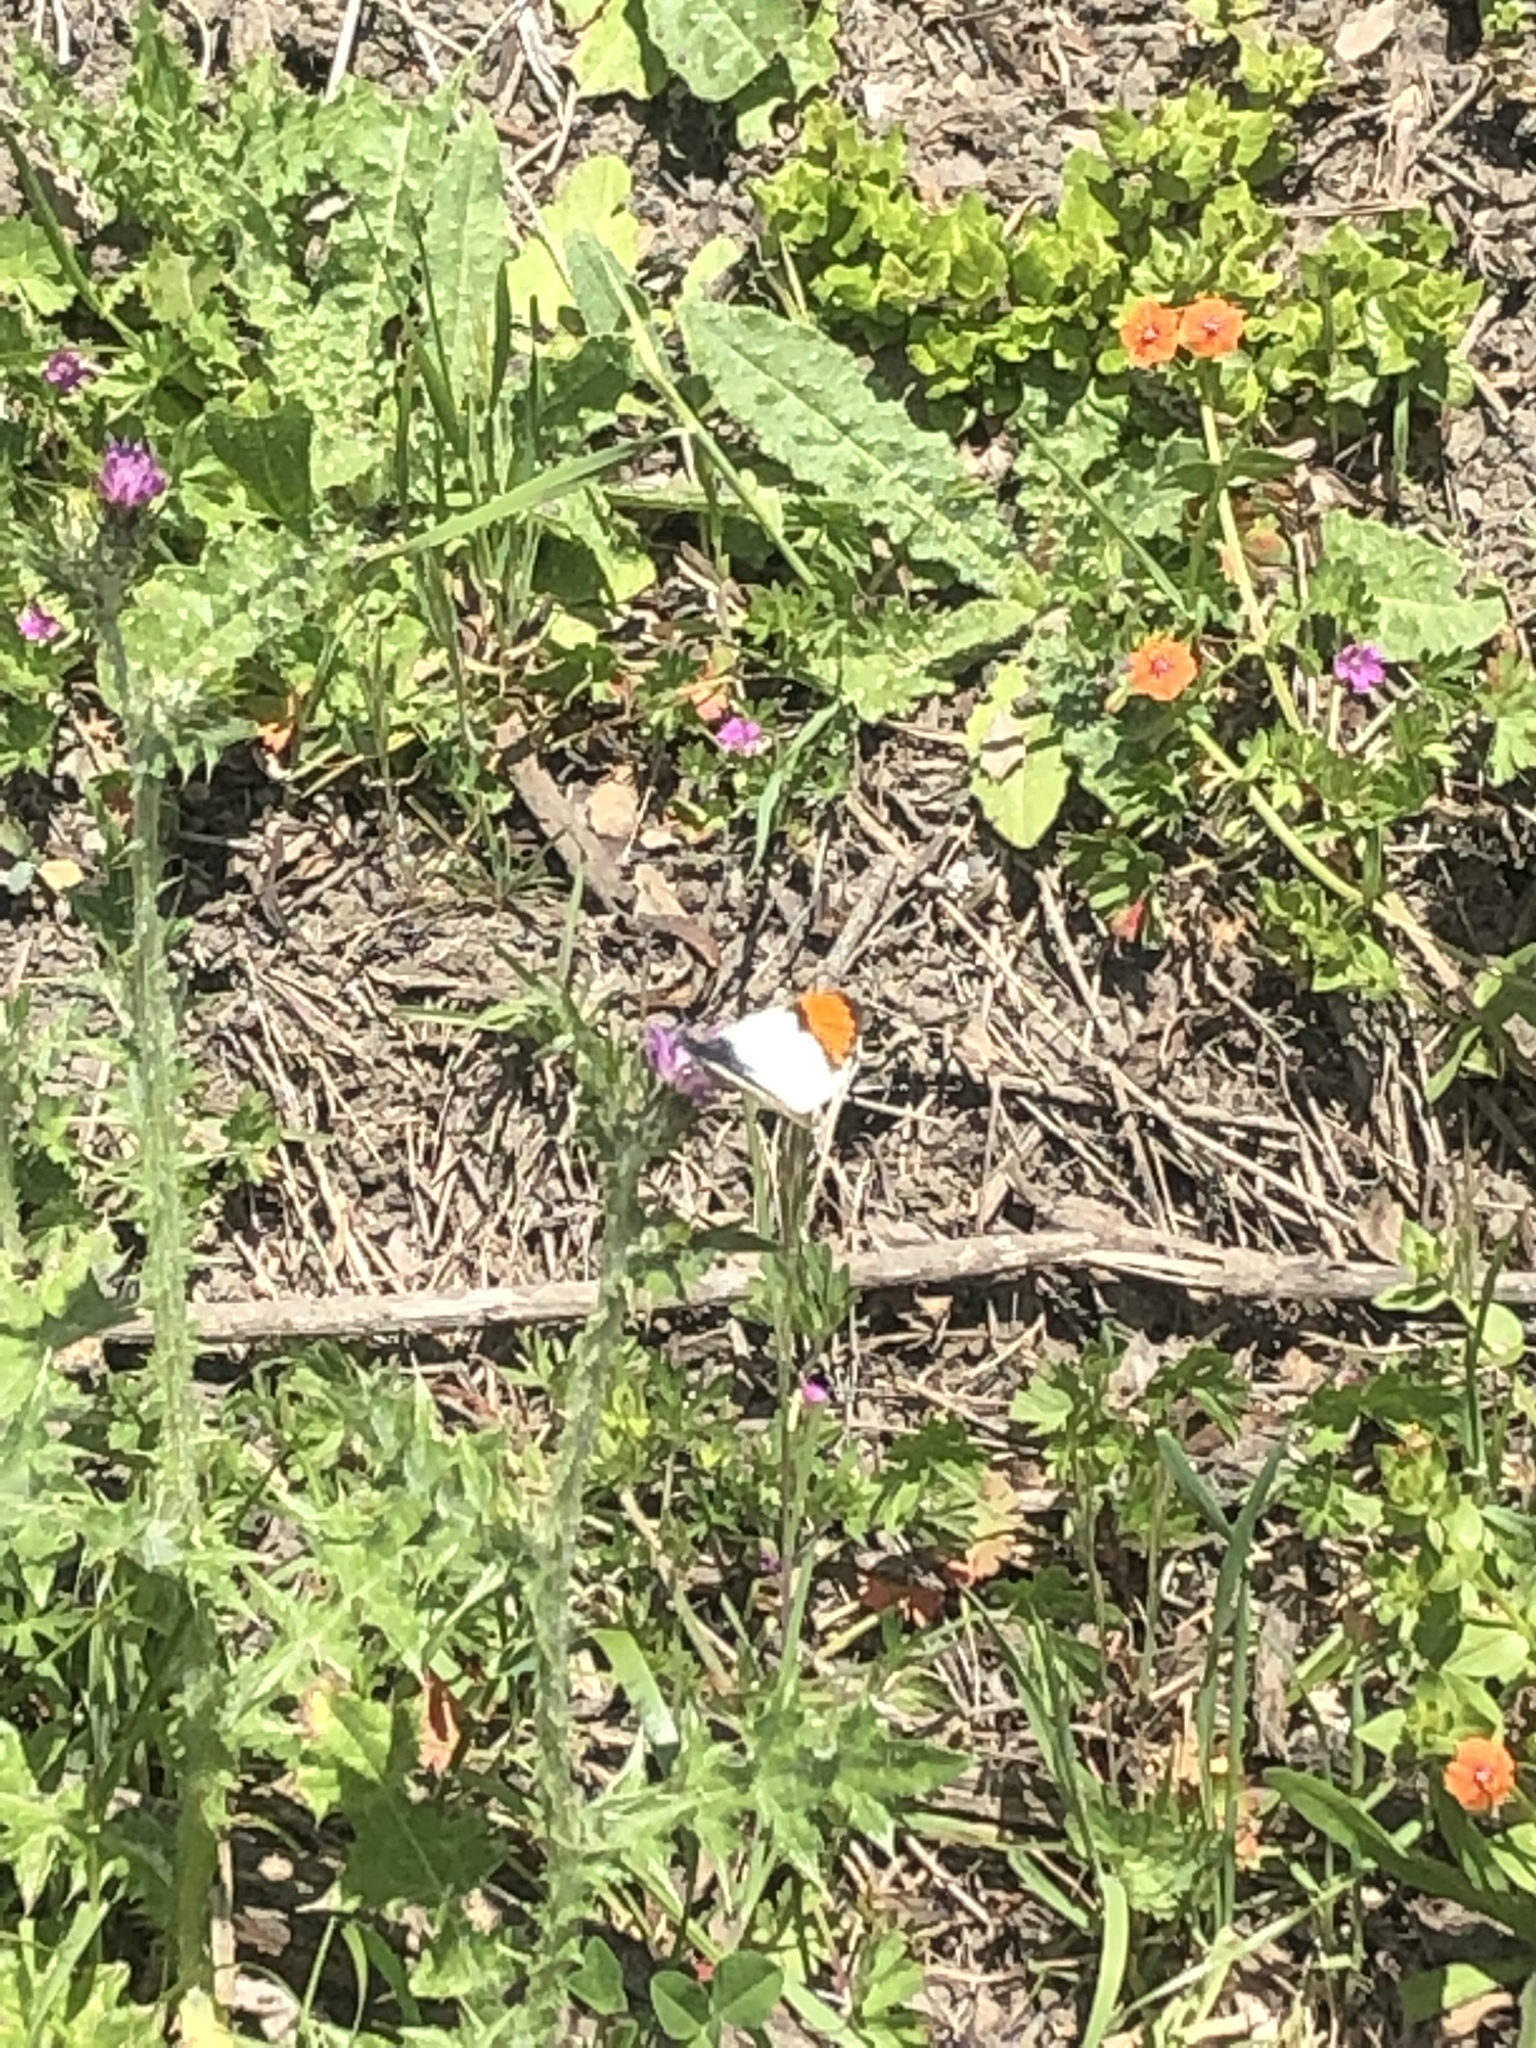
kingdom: Animalia
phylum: Arthropoda
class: Insecta
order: Lepidoptera
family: Pieridae
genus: Anthocharis
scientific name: Anthocharis sara
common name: Sara's orangetip
